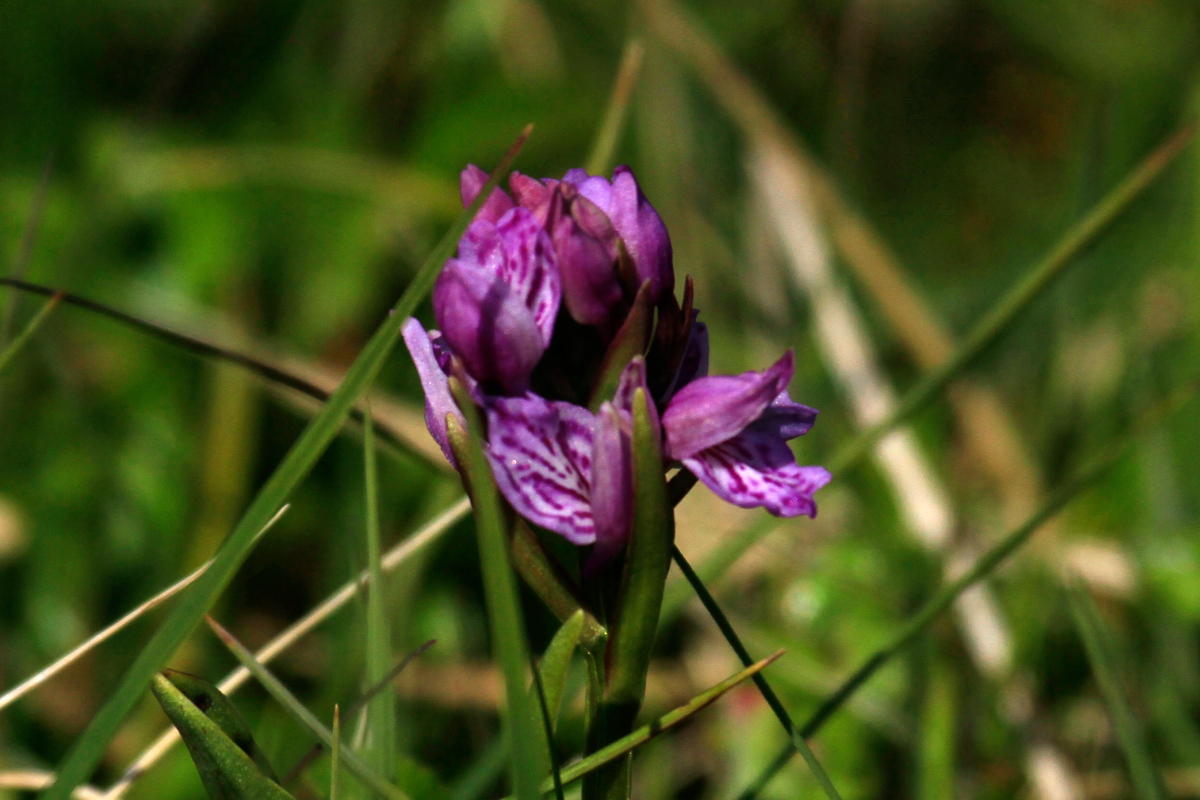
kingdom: Plantae
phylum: Tracheophyta
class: Liliopsida
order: Asparagales
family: Orchidaceae
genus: Dactylorhiza
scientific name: Dactylorhiza maculata
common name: Heath spotted-orchid
